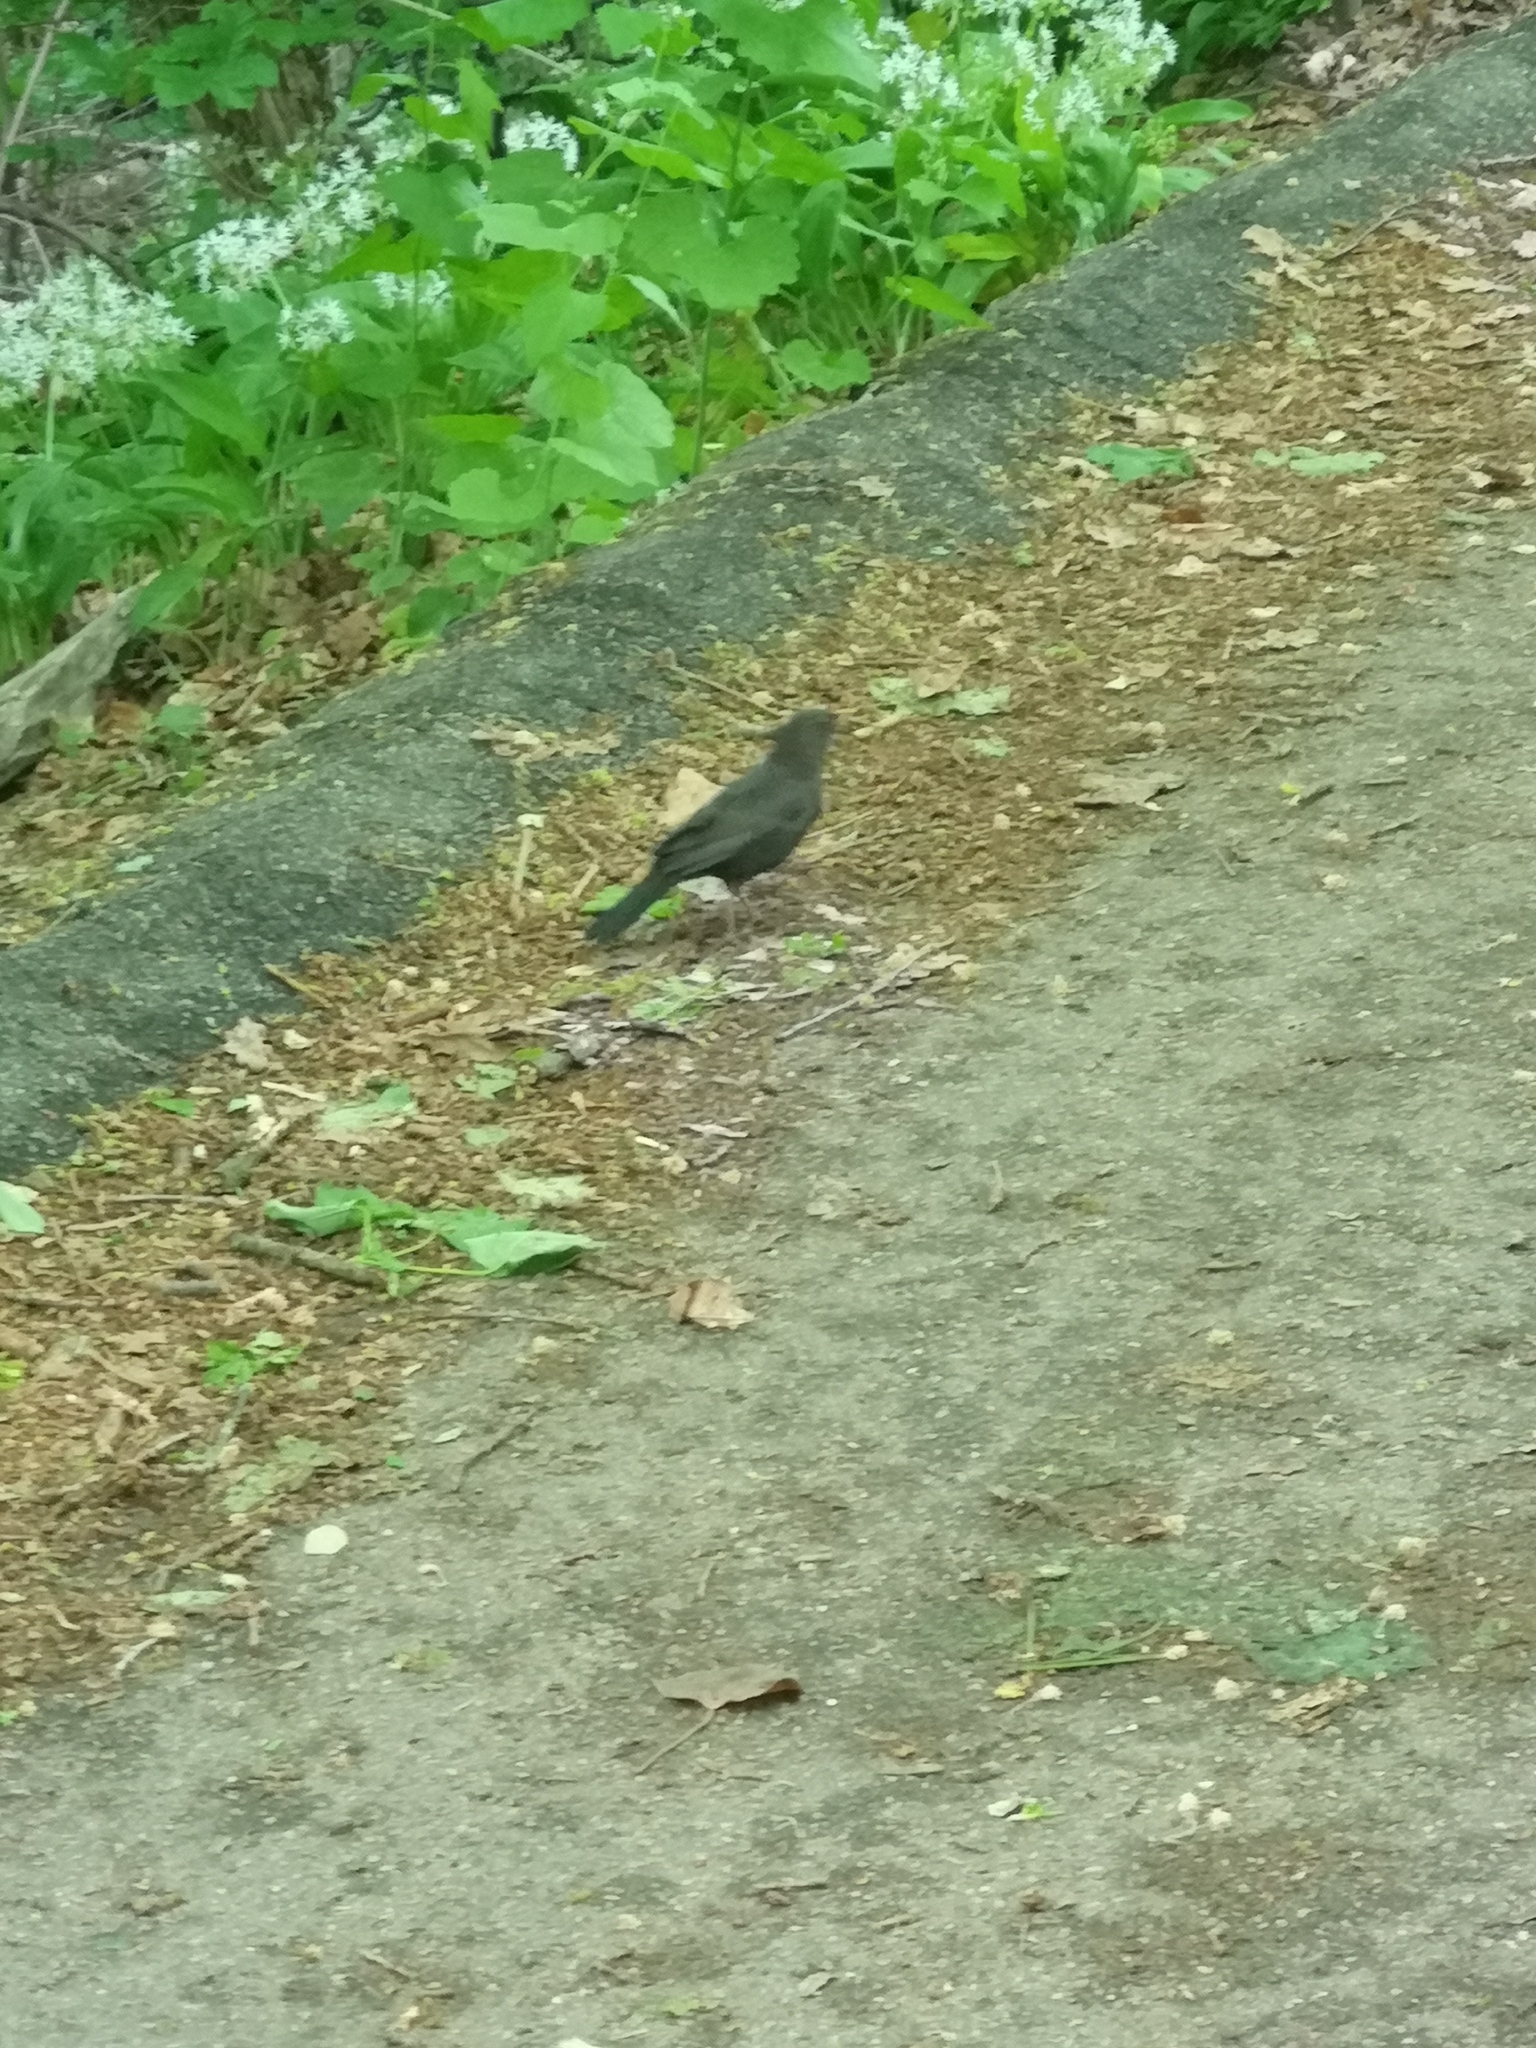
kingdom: Animalia
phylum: Chordata
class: Aves
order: Passeriformes
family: Turdidae
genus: Turdus
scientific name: Turdus merula
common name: Common blackbird
